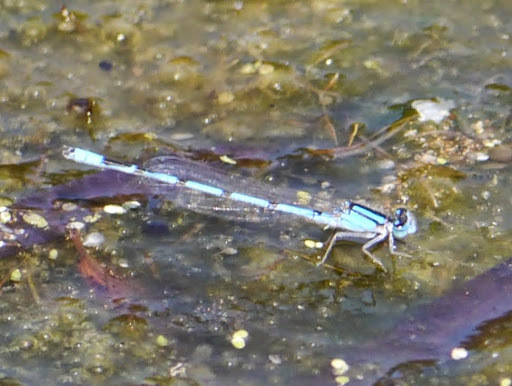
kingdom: Animalia
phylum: Arthropoda
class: Insecta
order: Odonata
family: Coenagrionidae
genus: Enallagma
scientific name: Enallagma civile
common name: Damselfly
